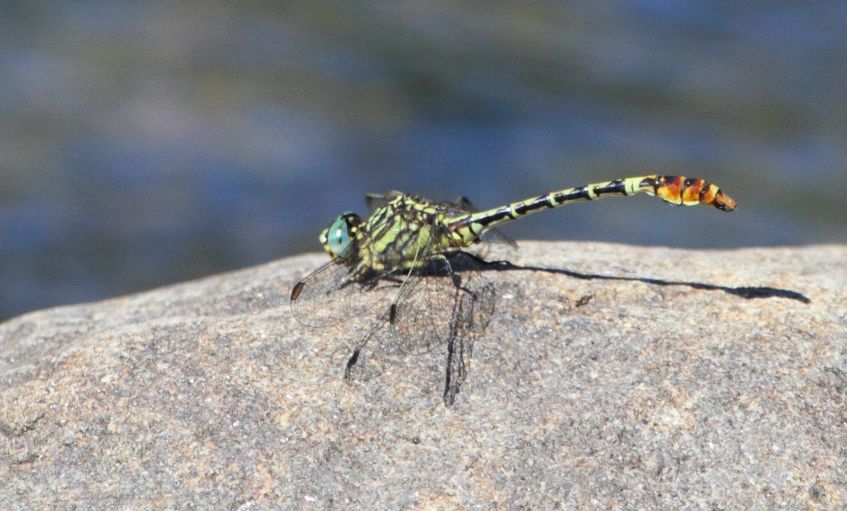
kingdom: Animalia
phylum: Arthropoda
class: Insecta
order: Odonata
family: Gomphidae
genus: Onychogomphus
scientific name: Onychogomphus supinus
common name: Gorge claspertail
